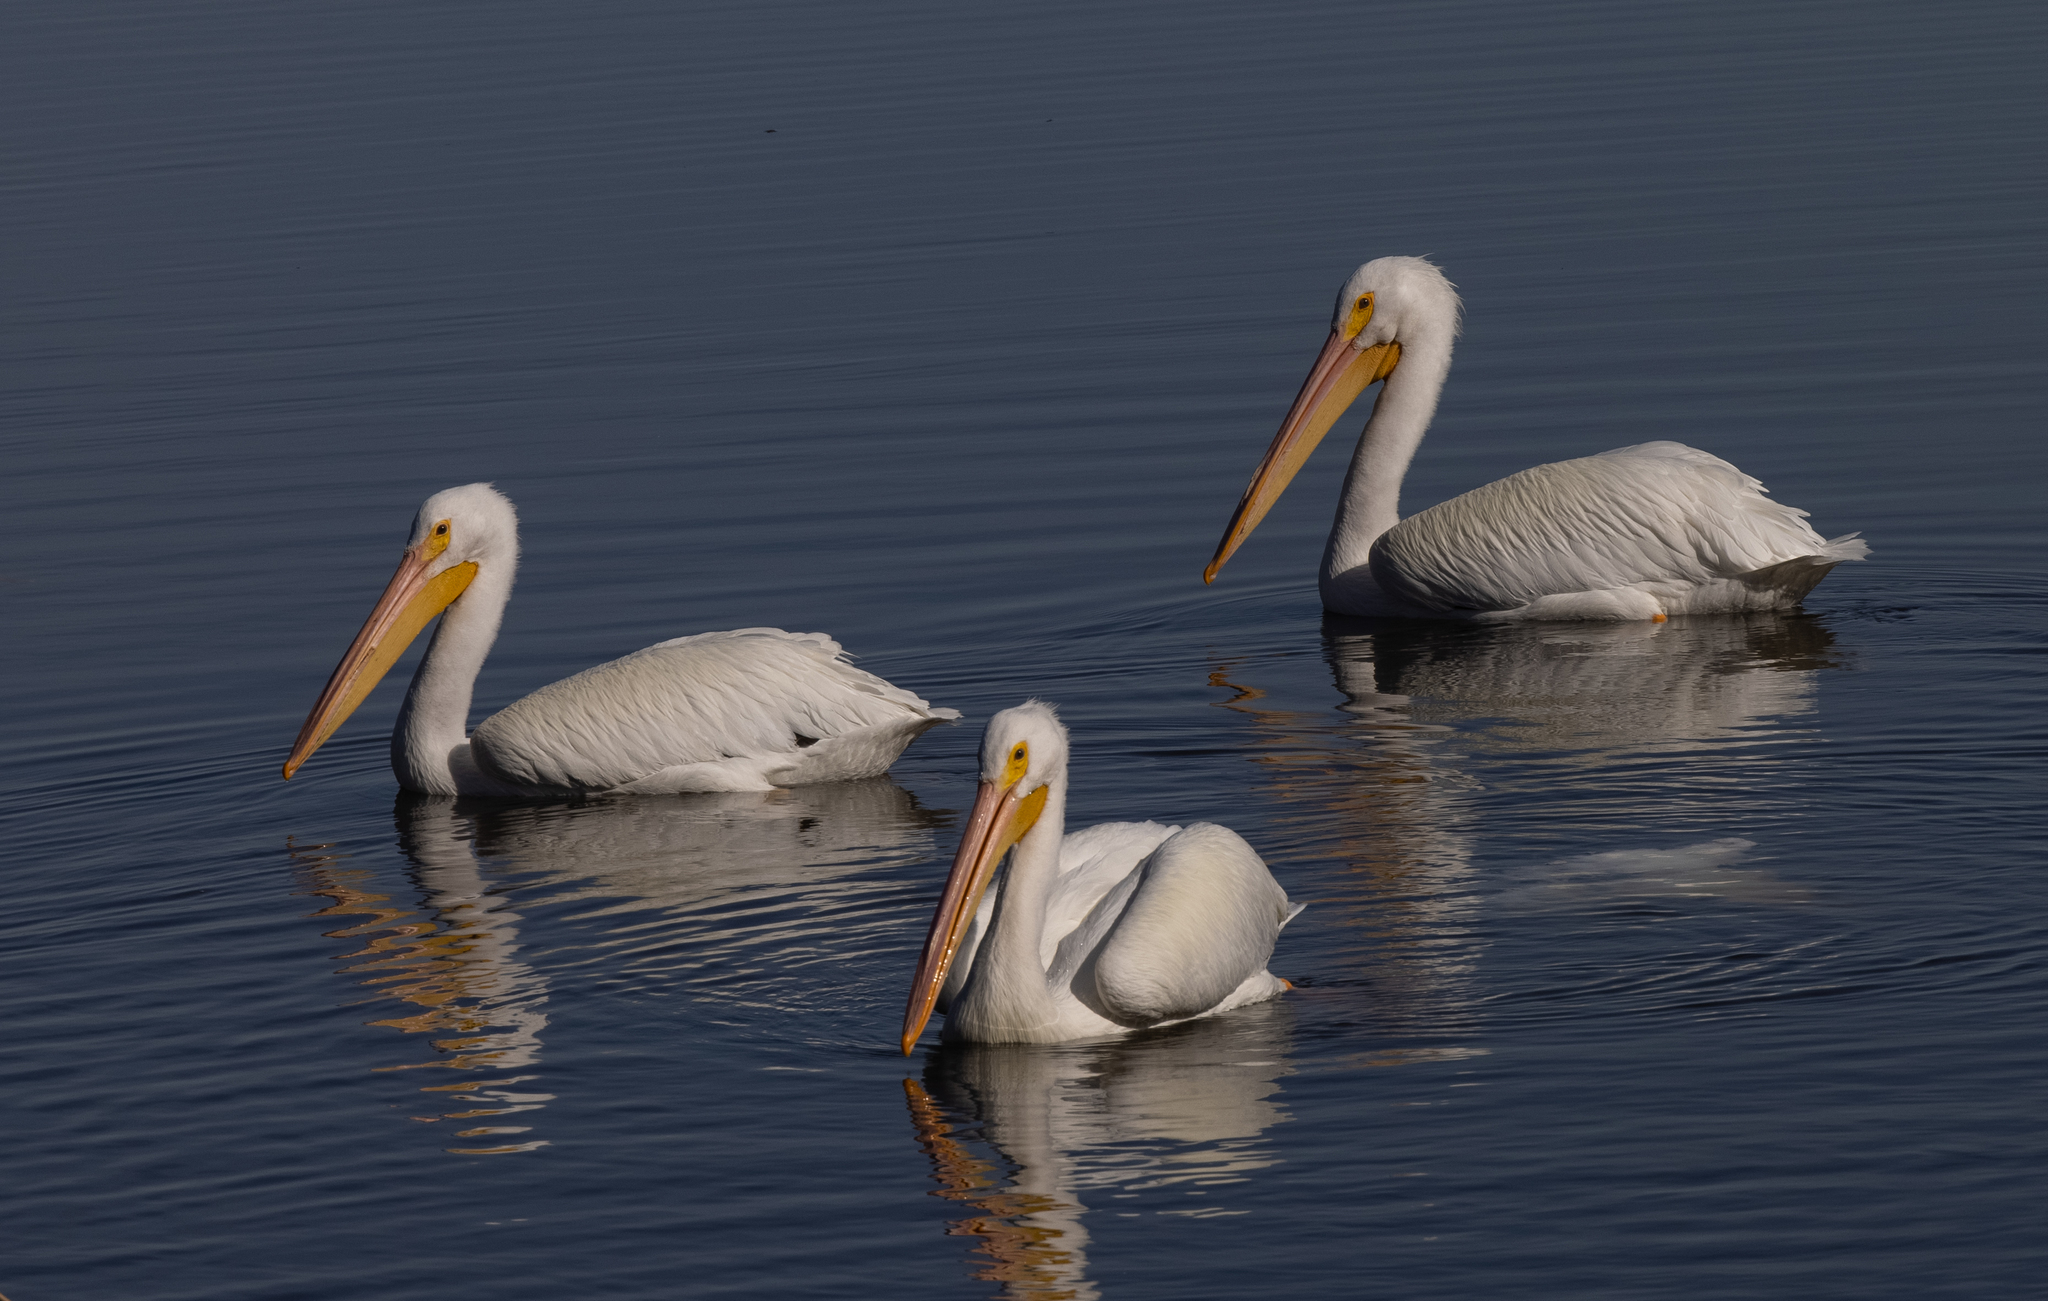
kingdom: Animalia
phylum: Chordata
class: Aves
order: Pelecaniformes
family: Pelecanidae
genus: Pelecanus
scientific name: Pelecanus erythrorhynchos
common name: American white pelican
